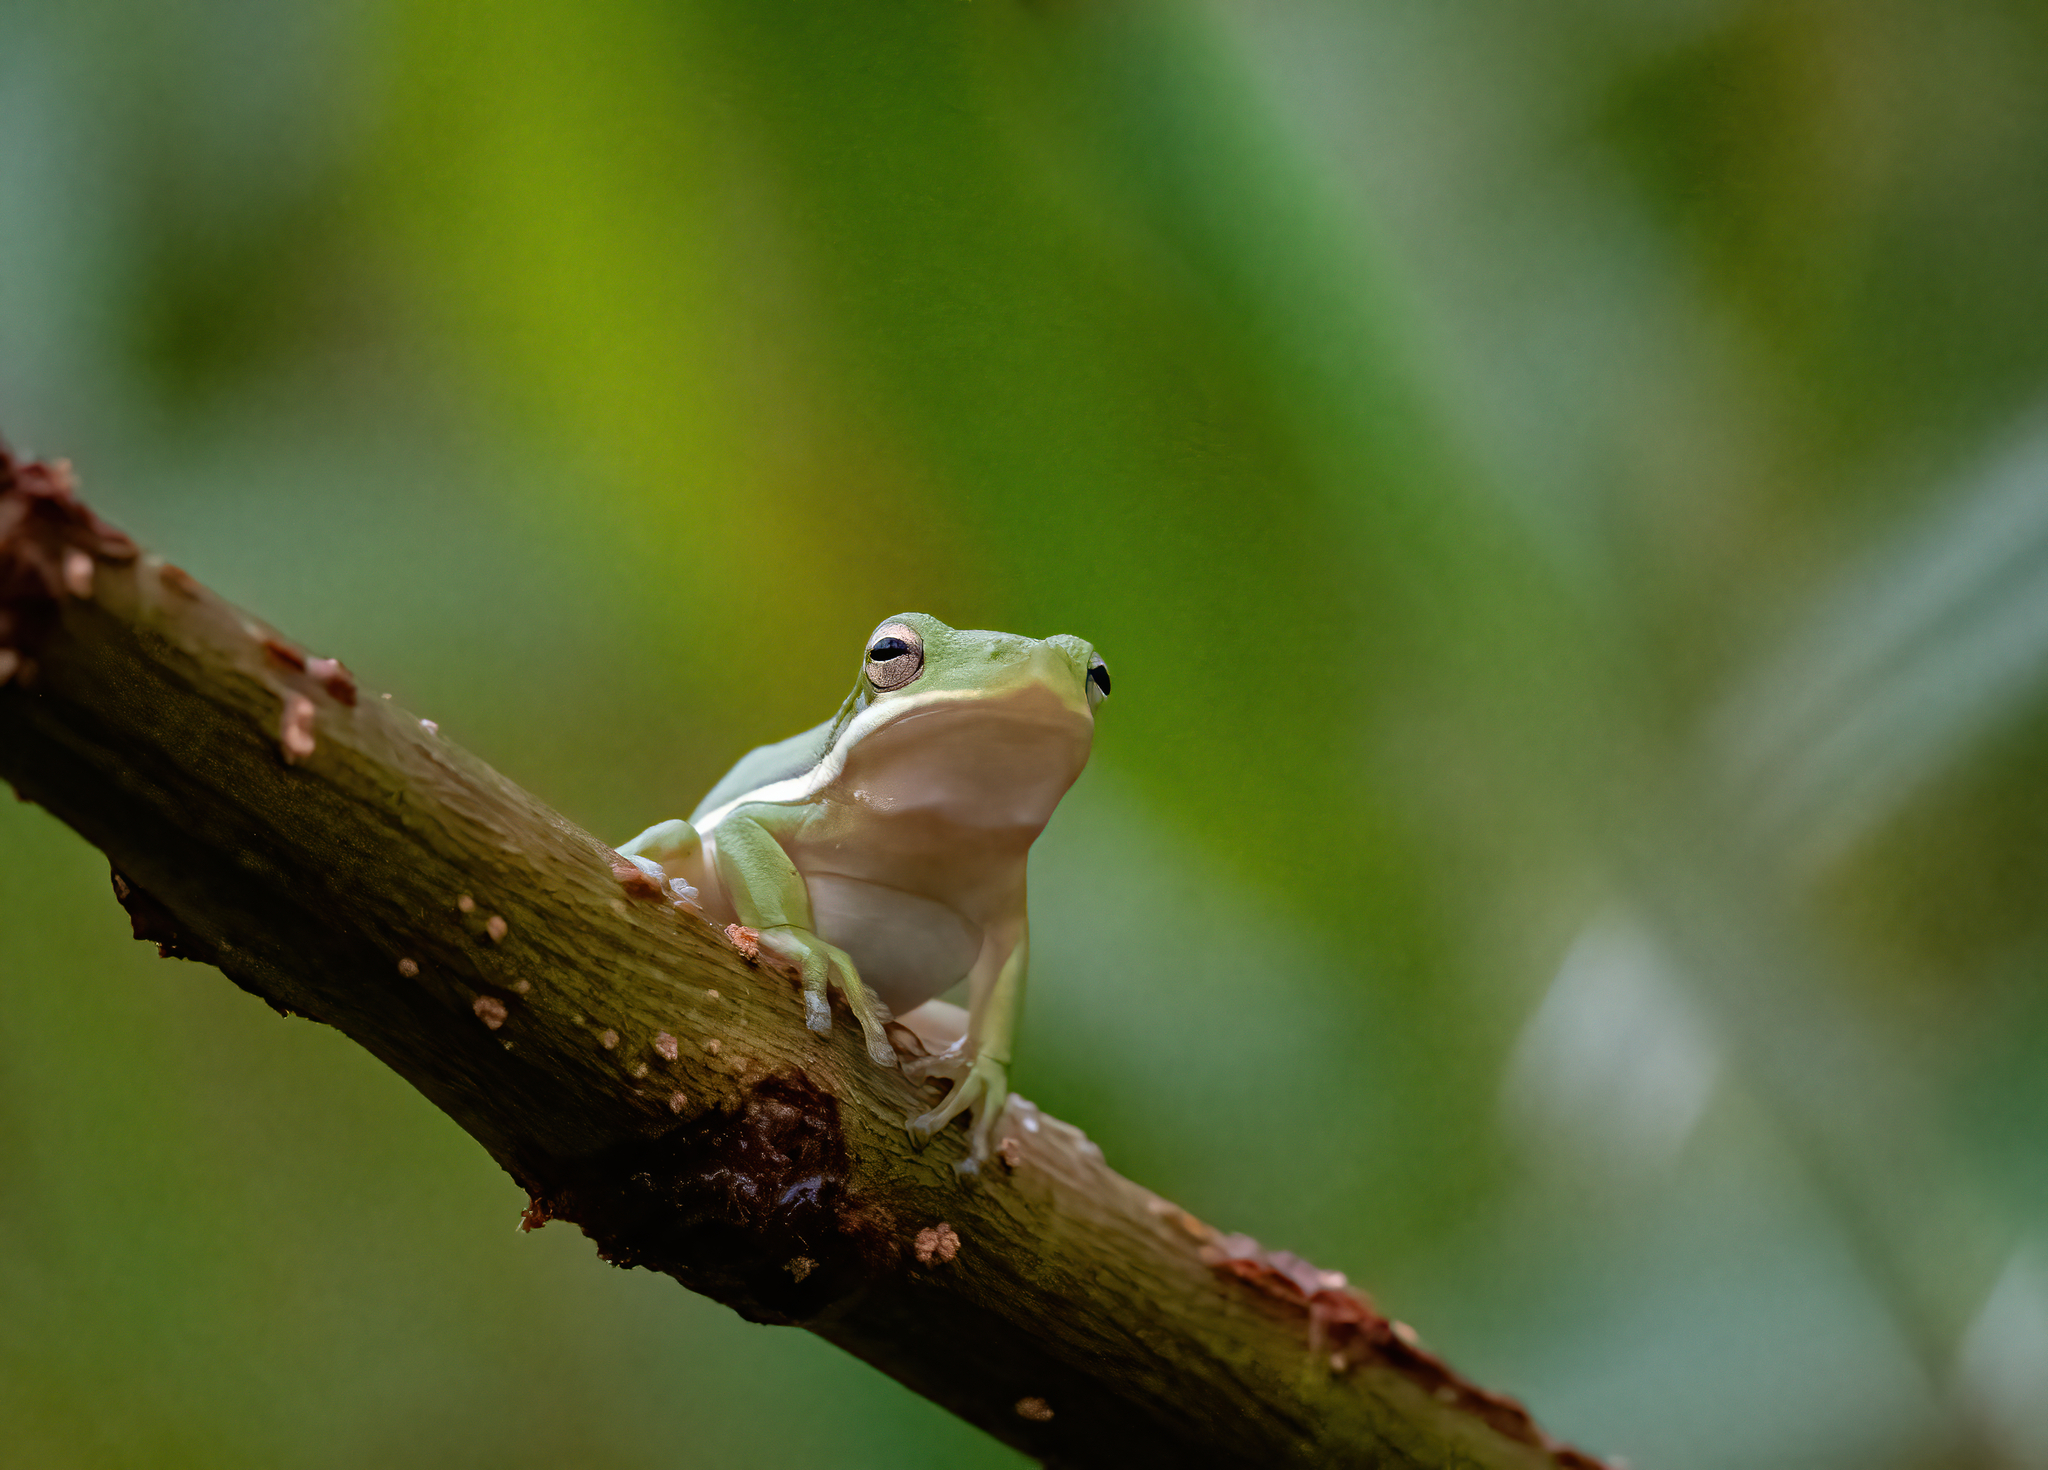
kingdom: Animalia
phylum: Chordata
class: Amphibia
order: Anura
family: Hylidae
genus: Dryophytes
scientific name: Dryophytes cinereus
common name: Green treefrog
